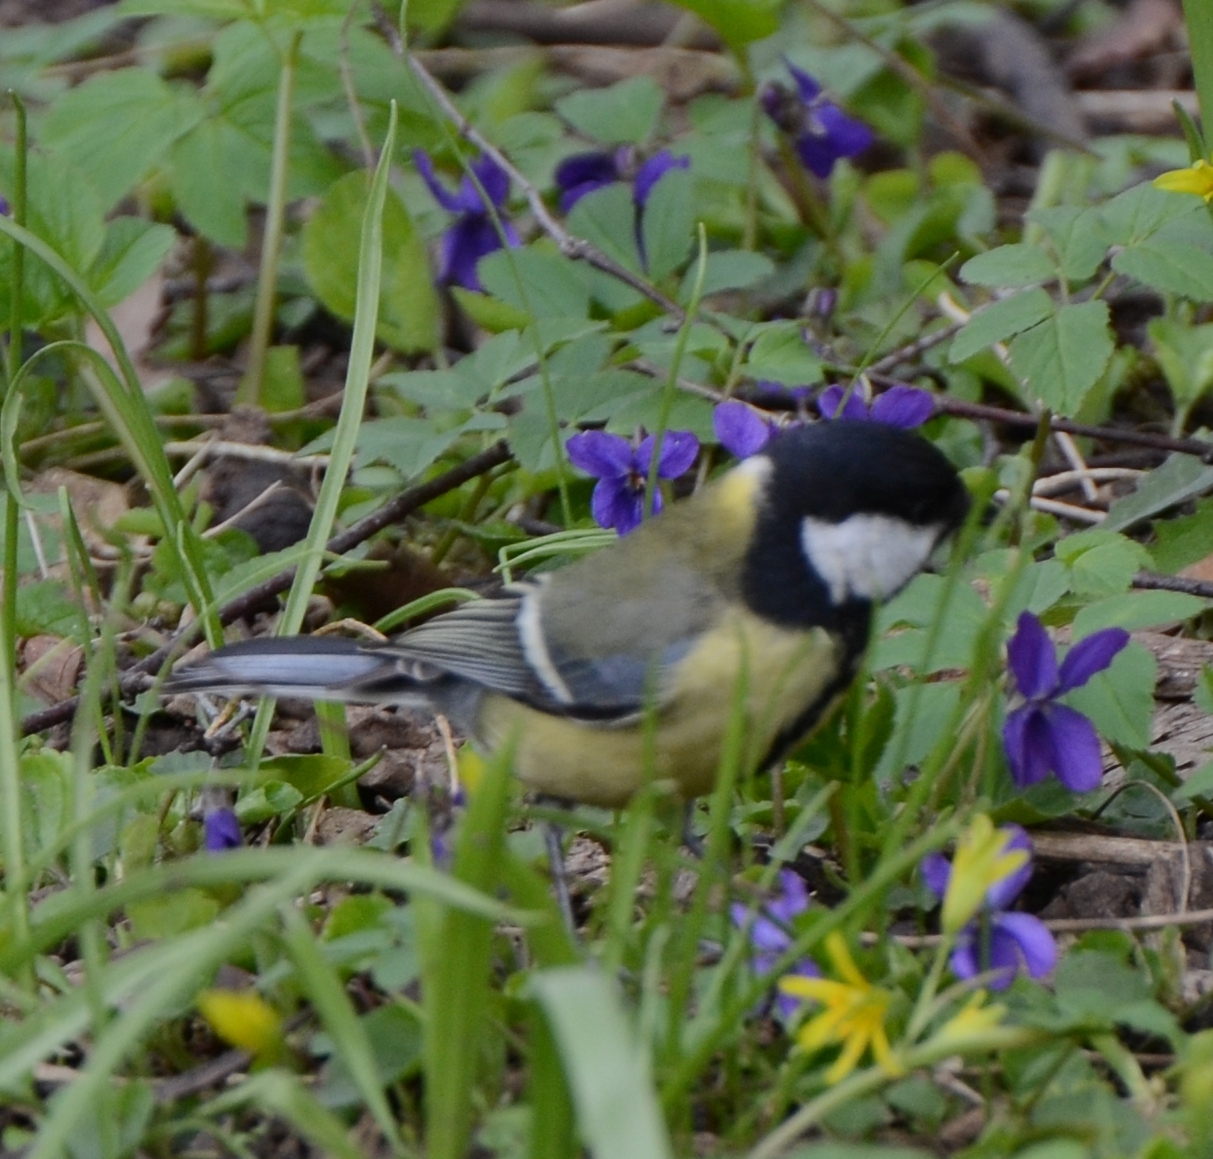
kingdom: Animalia
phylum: Chordata
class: Aves
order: Passeriformes
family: Paridae
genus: Parus
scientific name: Parus major
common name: Great tit
